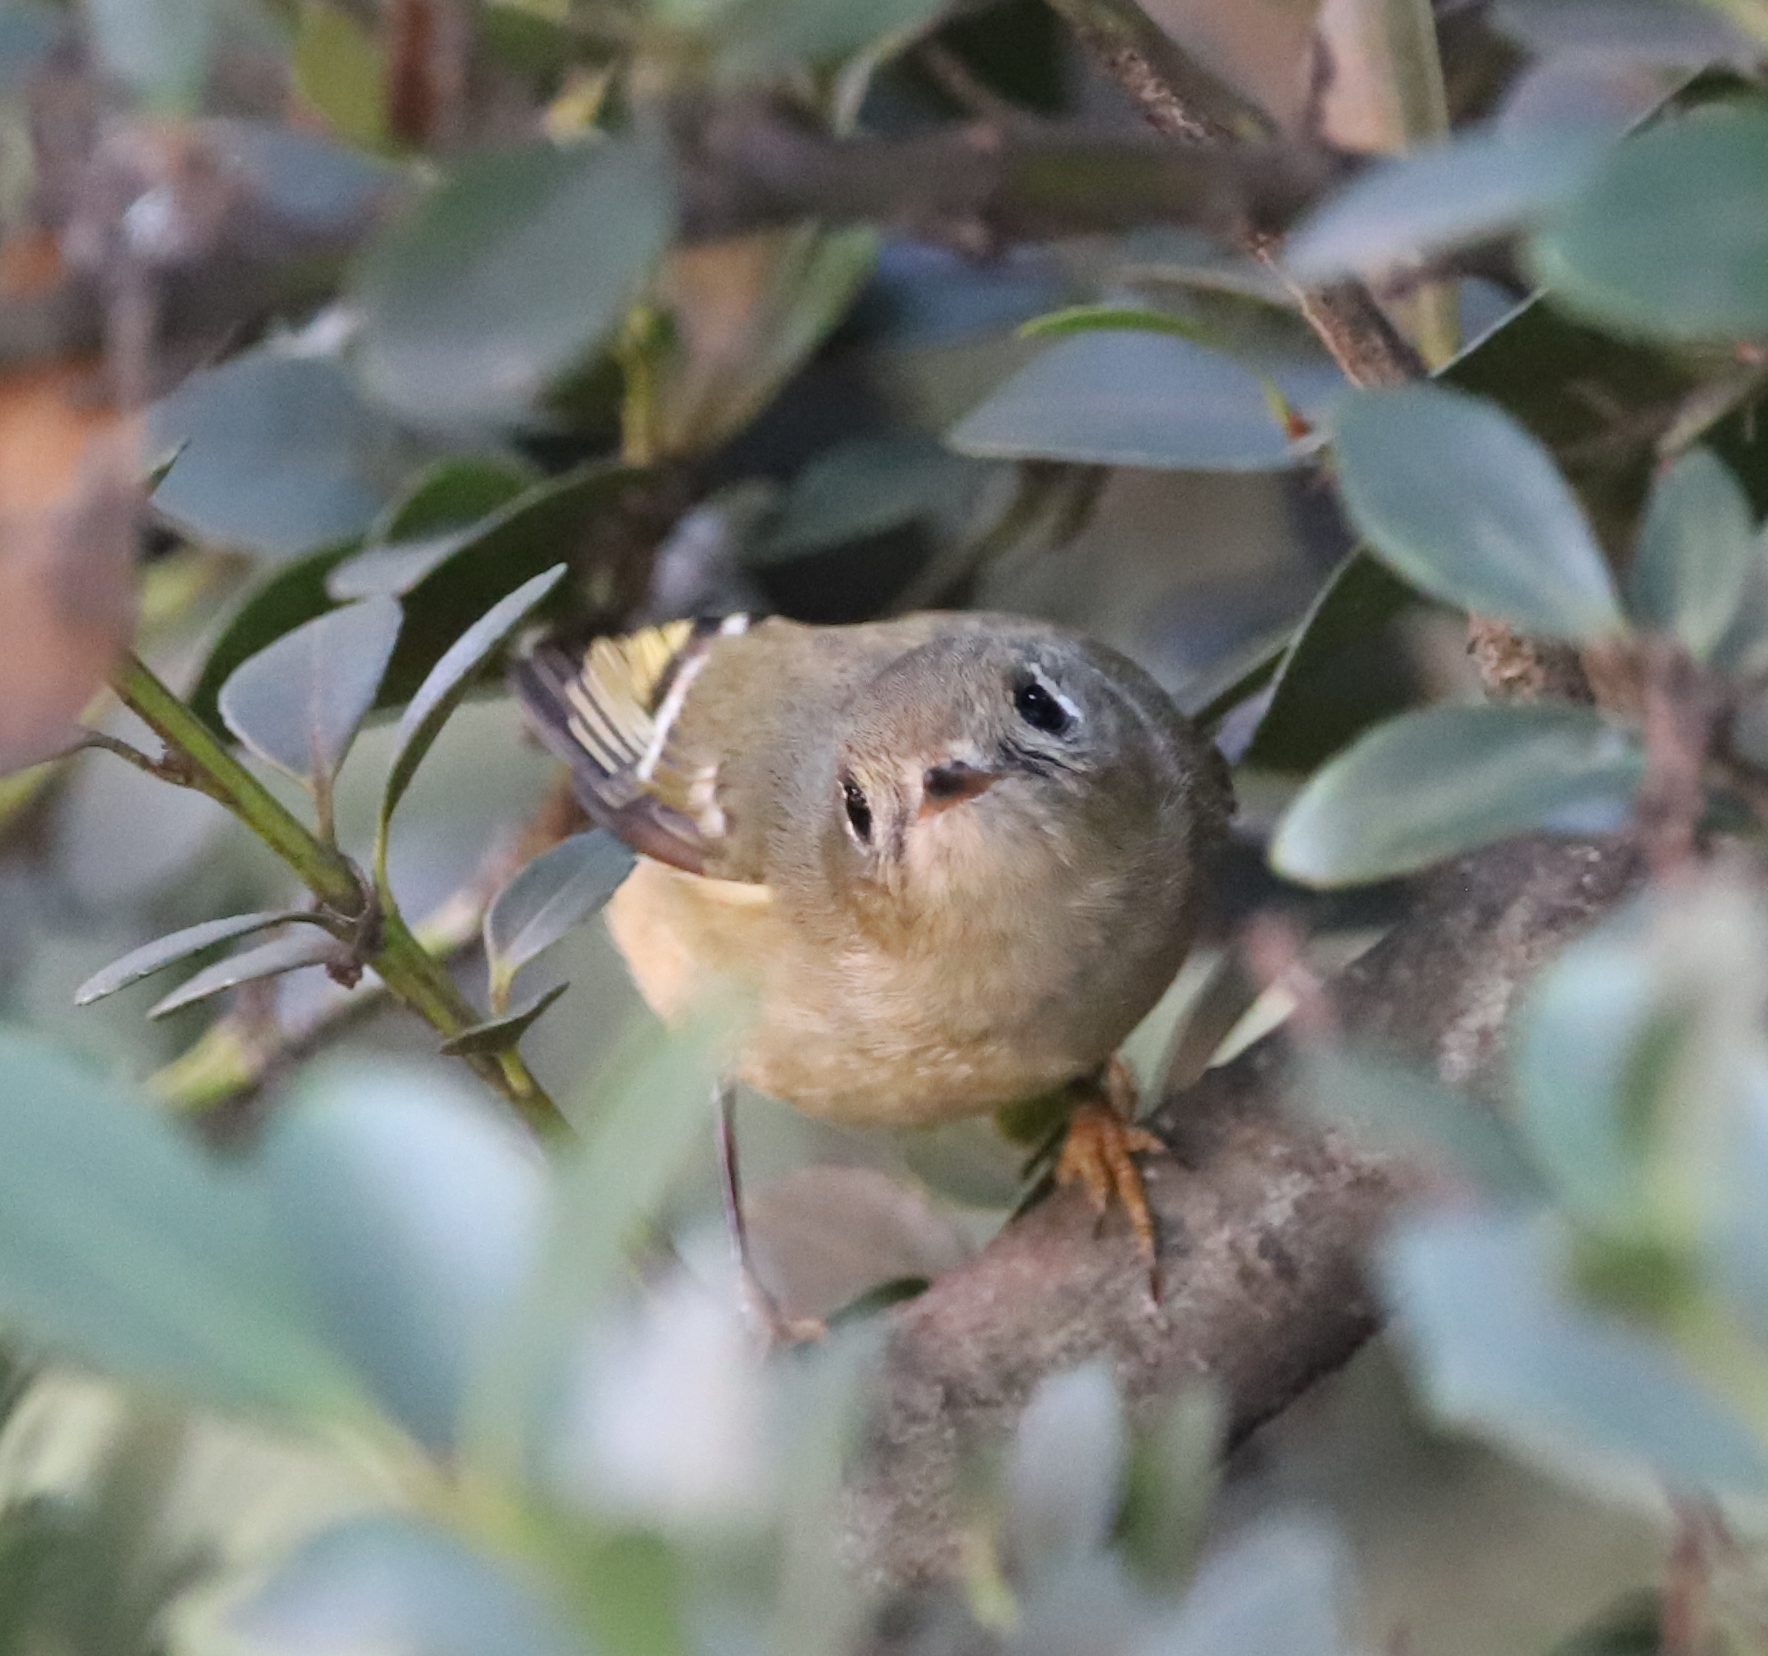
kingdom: Animalia
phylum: Chordata
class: Aves
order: Passeriformes
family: Regulidae
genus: Regulus
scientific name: Regulus calendula
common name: Ruby-crowned kinglet
